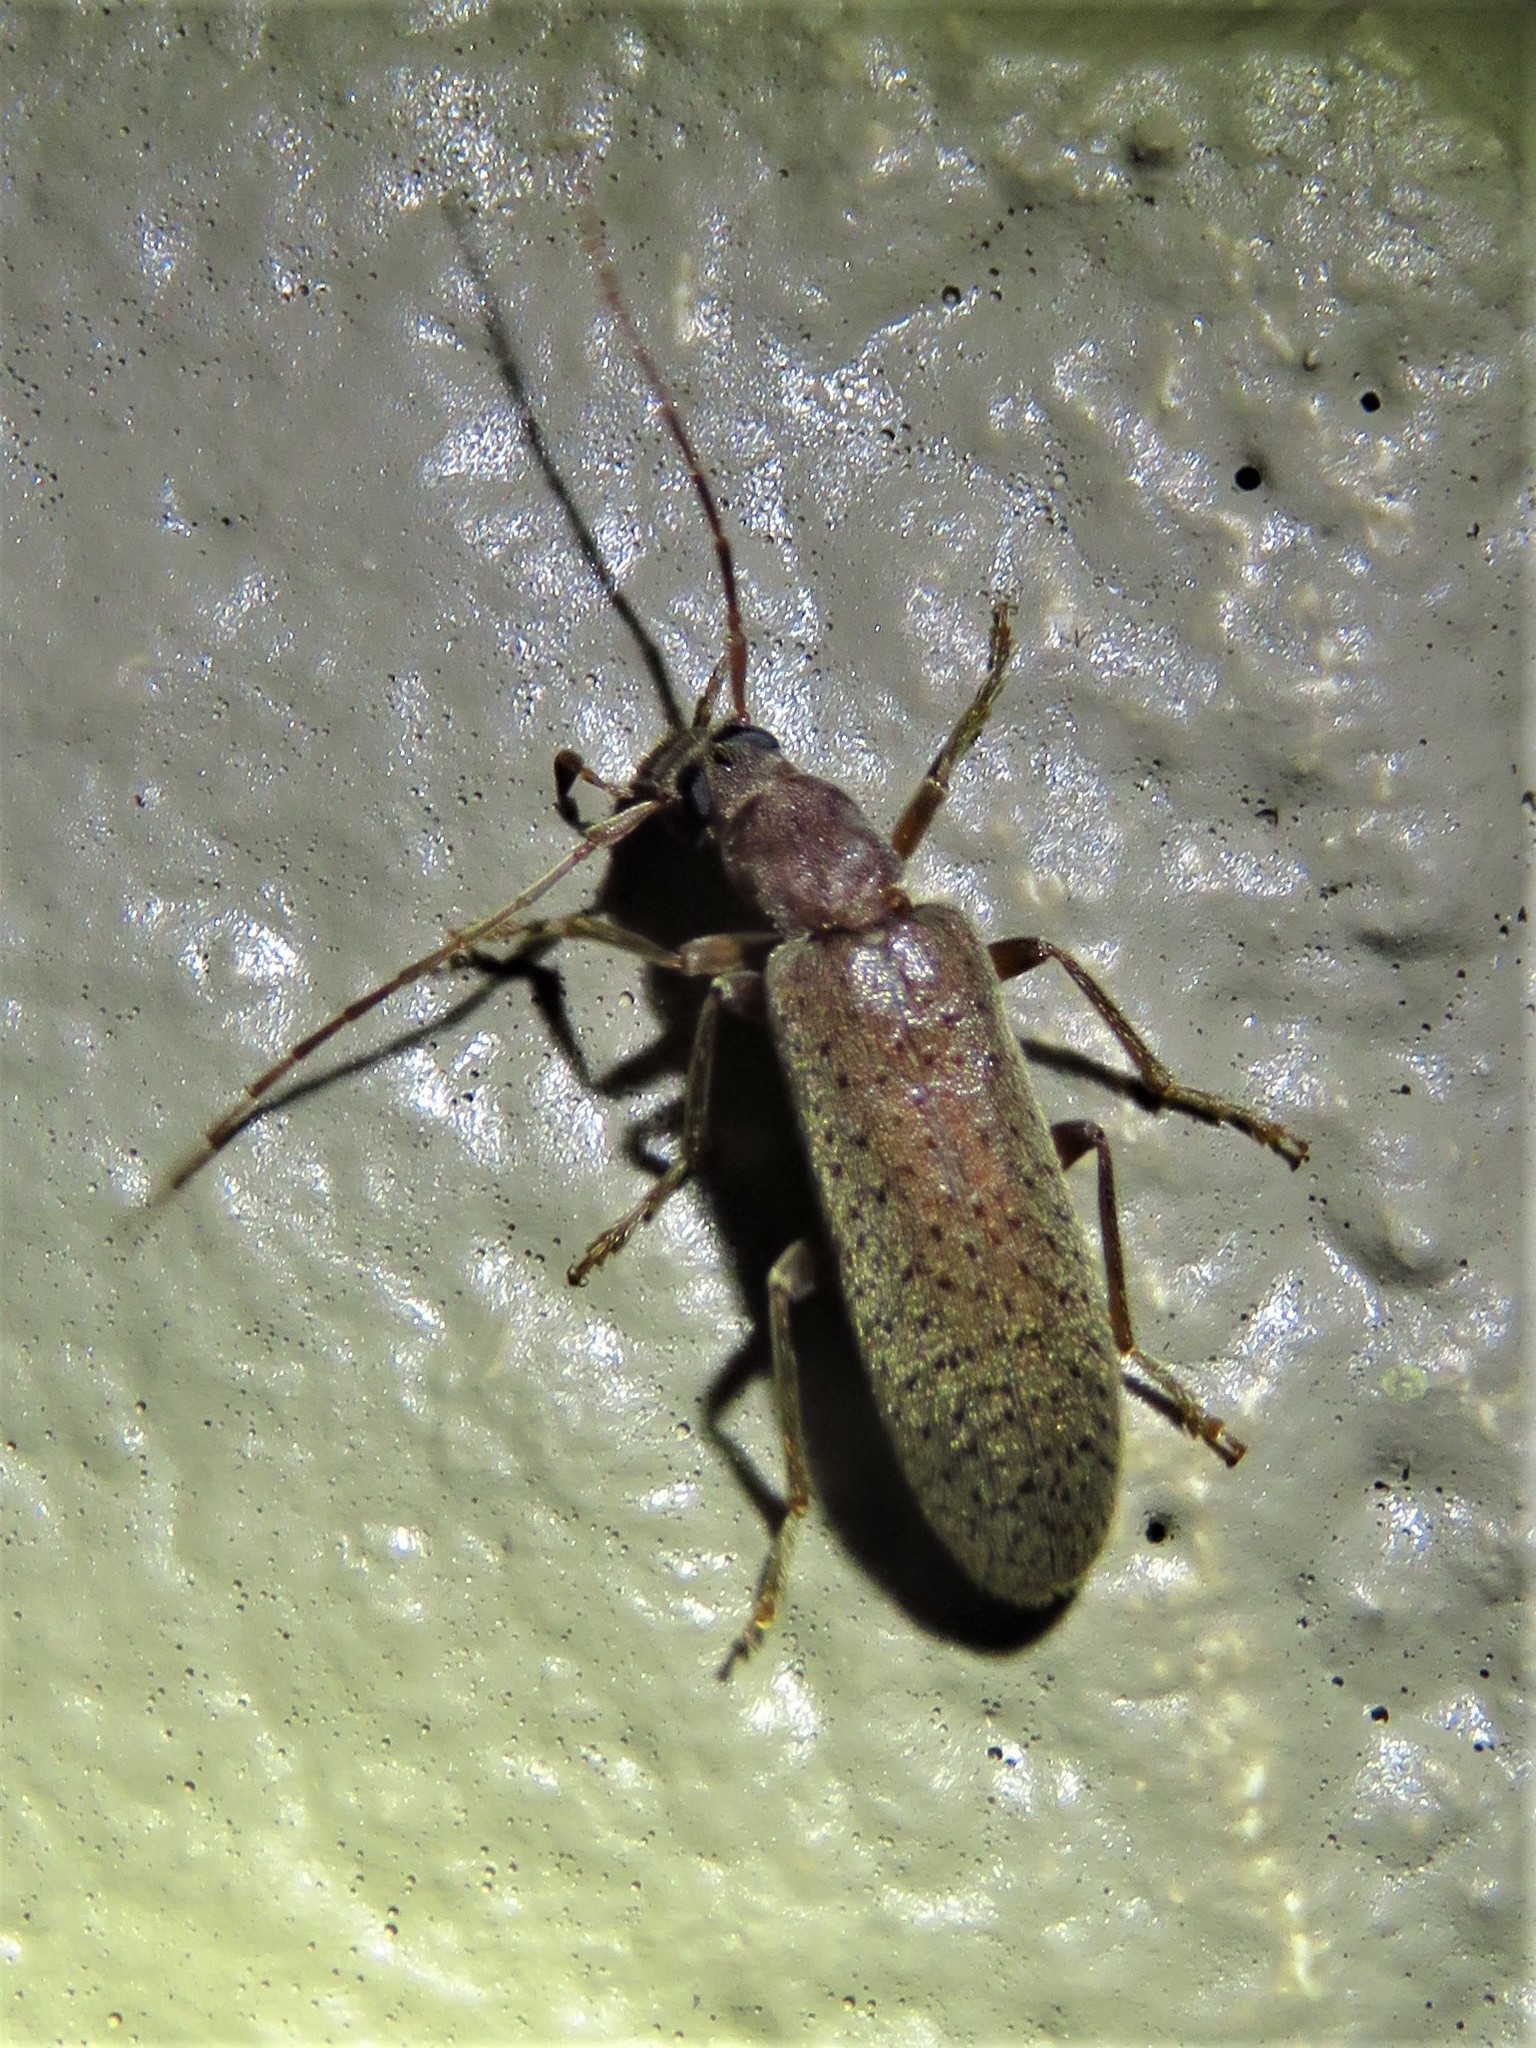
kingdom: Animalia
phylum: Arthropoda
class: Insecta
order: Coleoptera
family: Oedemeridae
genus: Sparedrus
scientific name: Sparedrus aspersus
